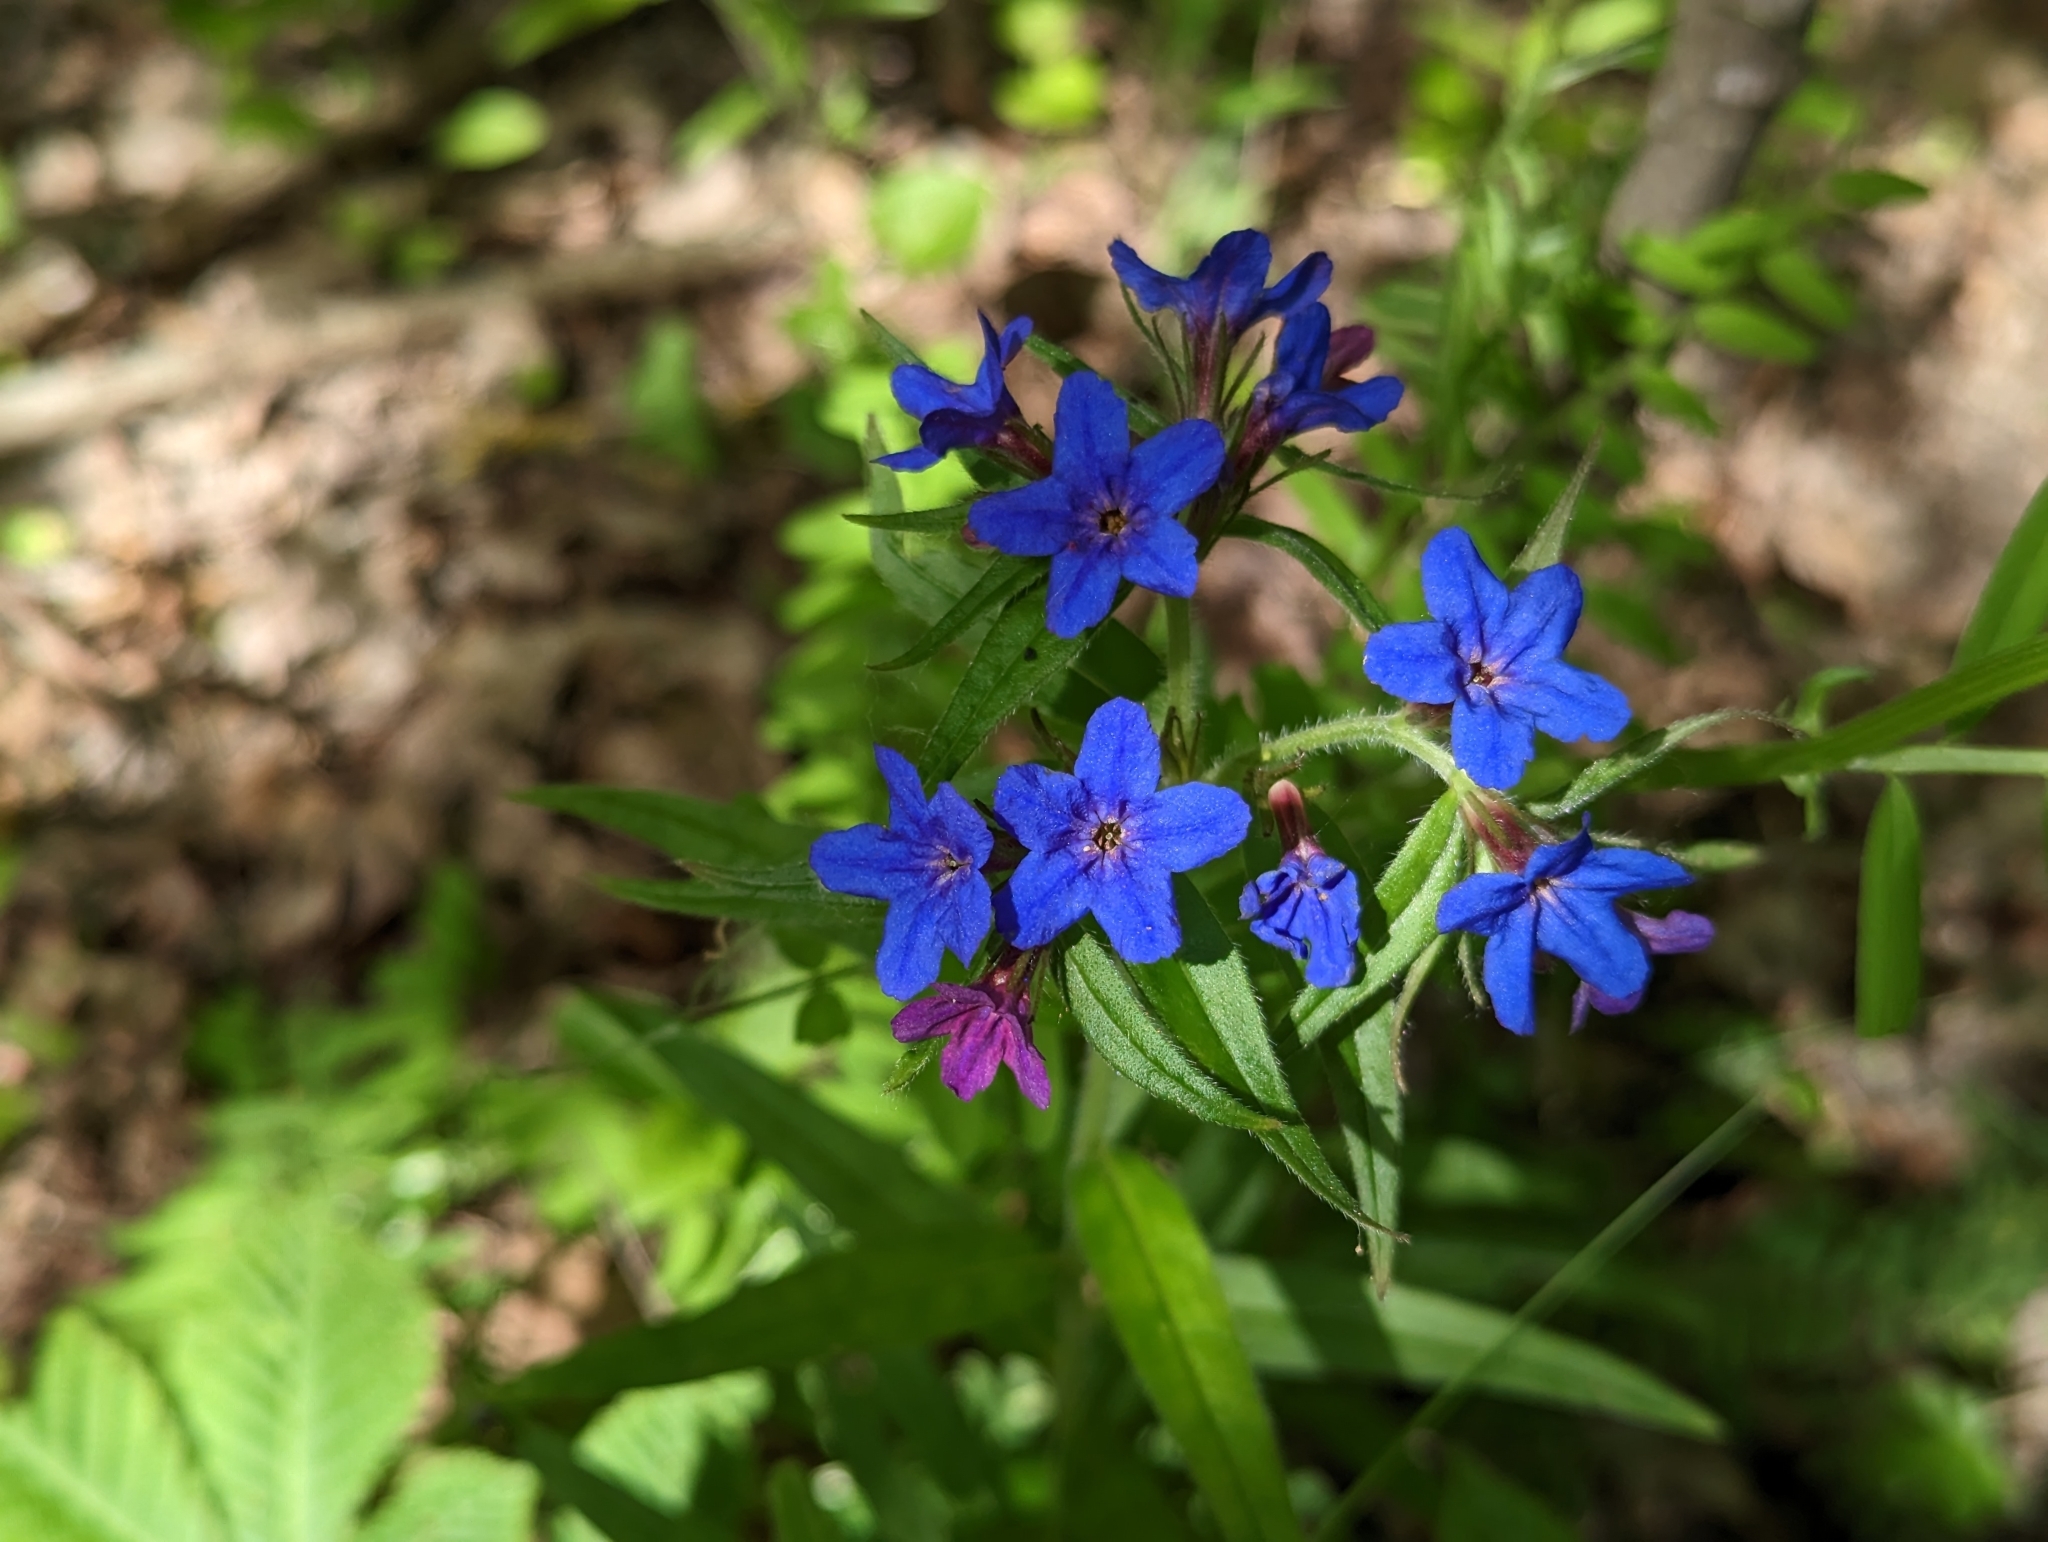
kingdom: Plantae
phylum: Tracheophyta
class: Magnoliopsida
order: Boraginales
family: Boraginaceae
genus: Aegonychon
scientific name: Aegonychon purpurocaeruleum
